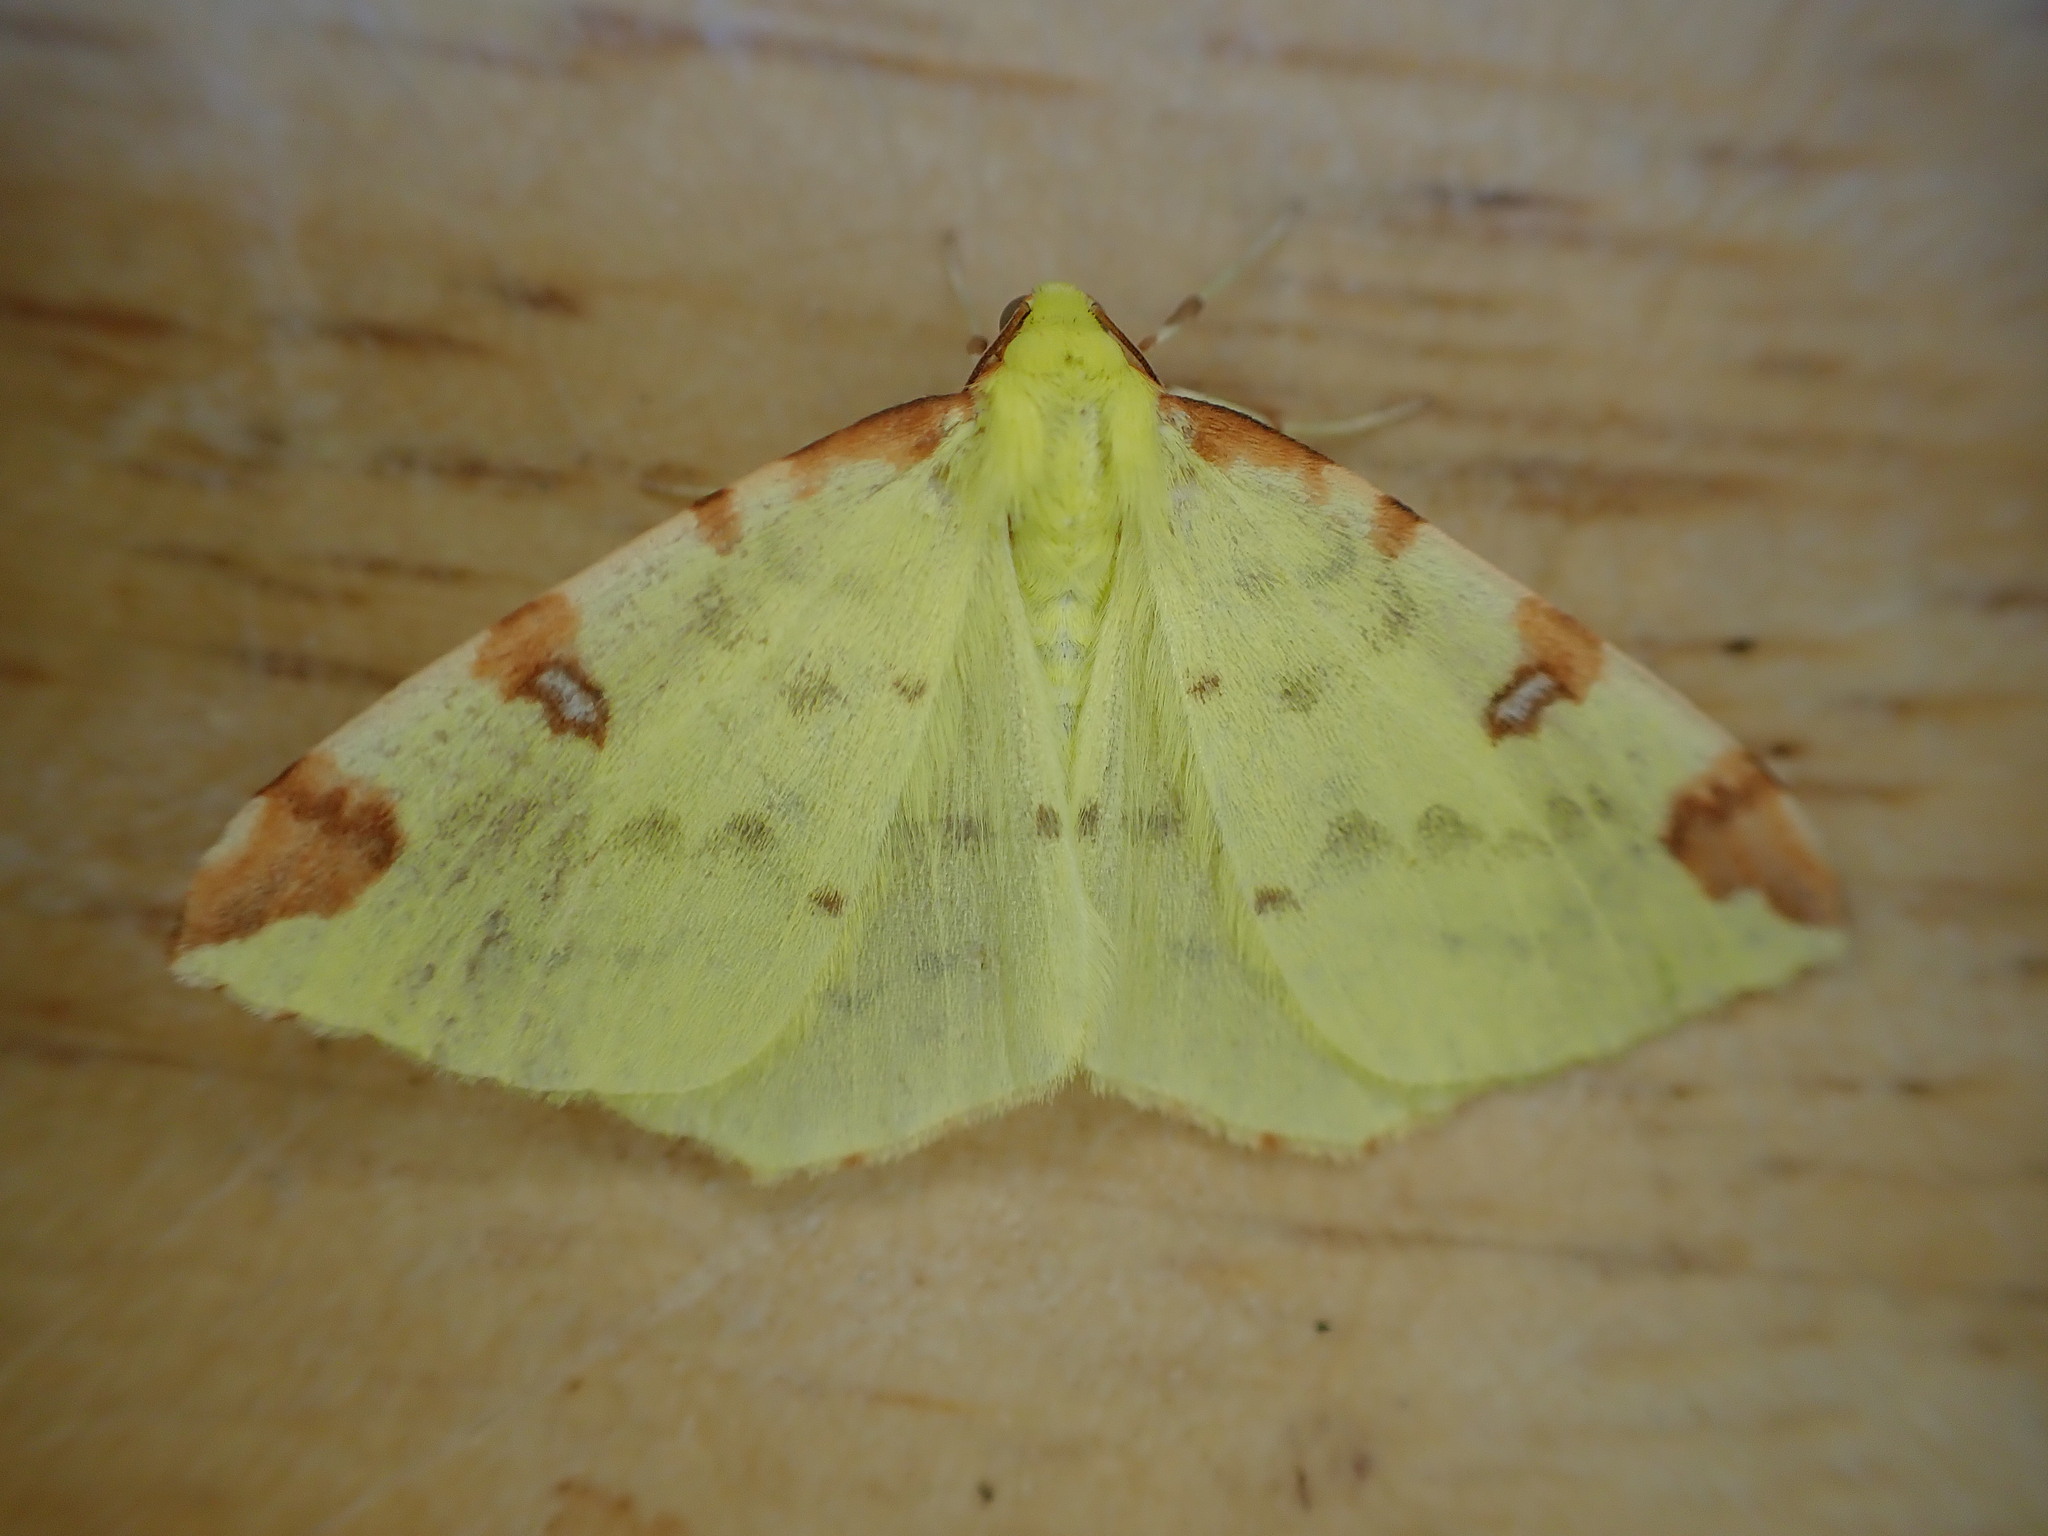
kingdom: Animalia
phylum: Arthropoda
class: Insecta
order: Lepidoptera
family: Geometridae
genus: Opisthograptis
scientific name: Opisthograptis luteolata
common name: Brimstone moth
